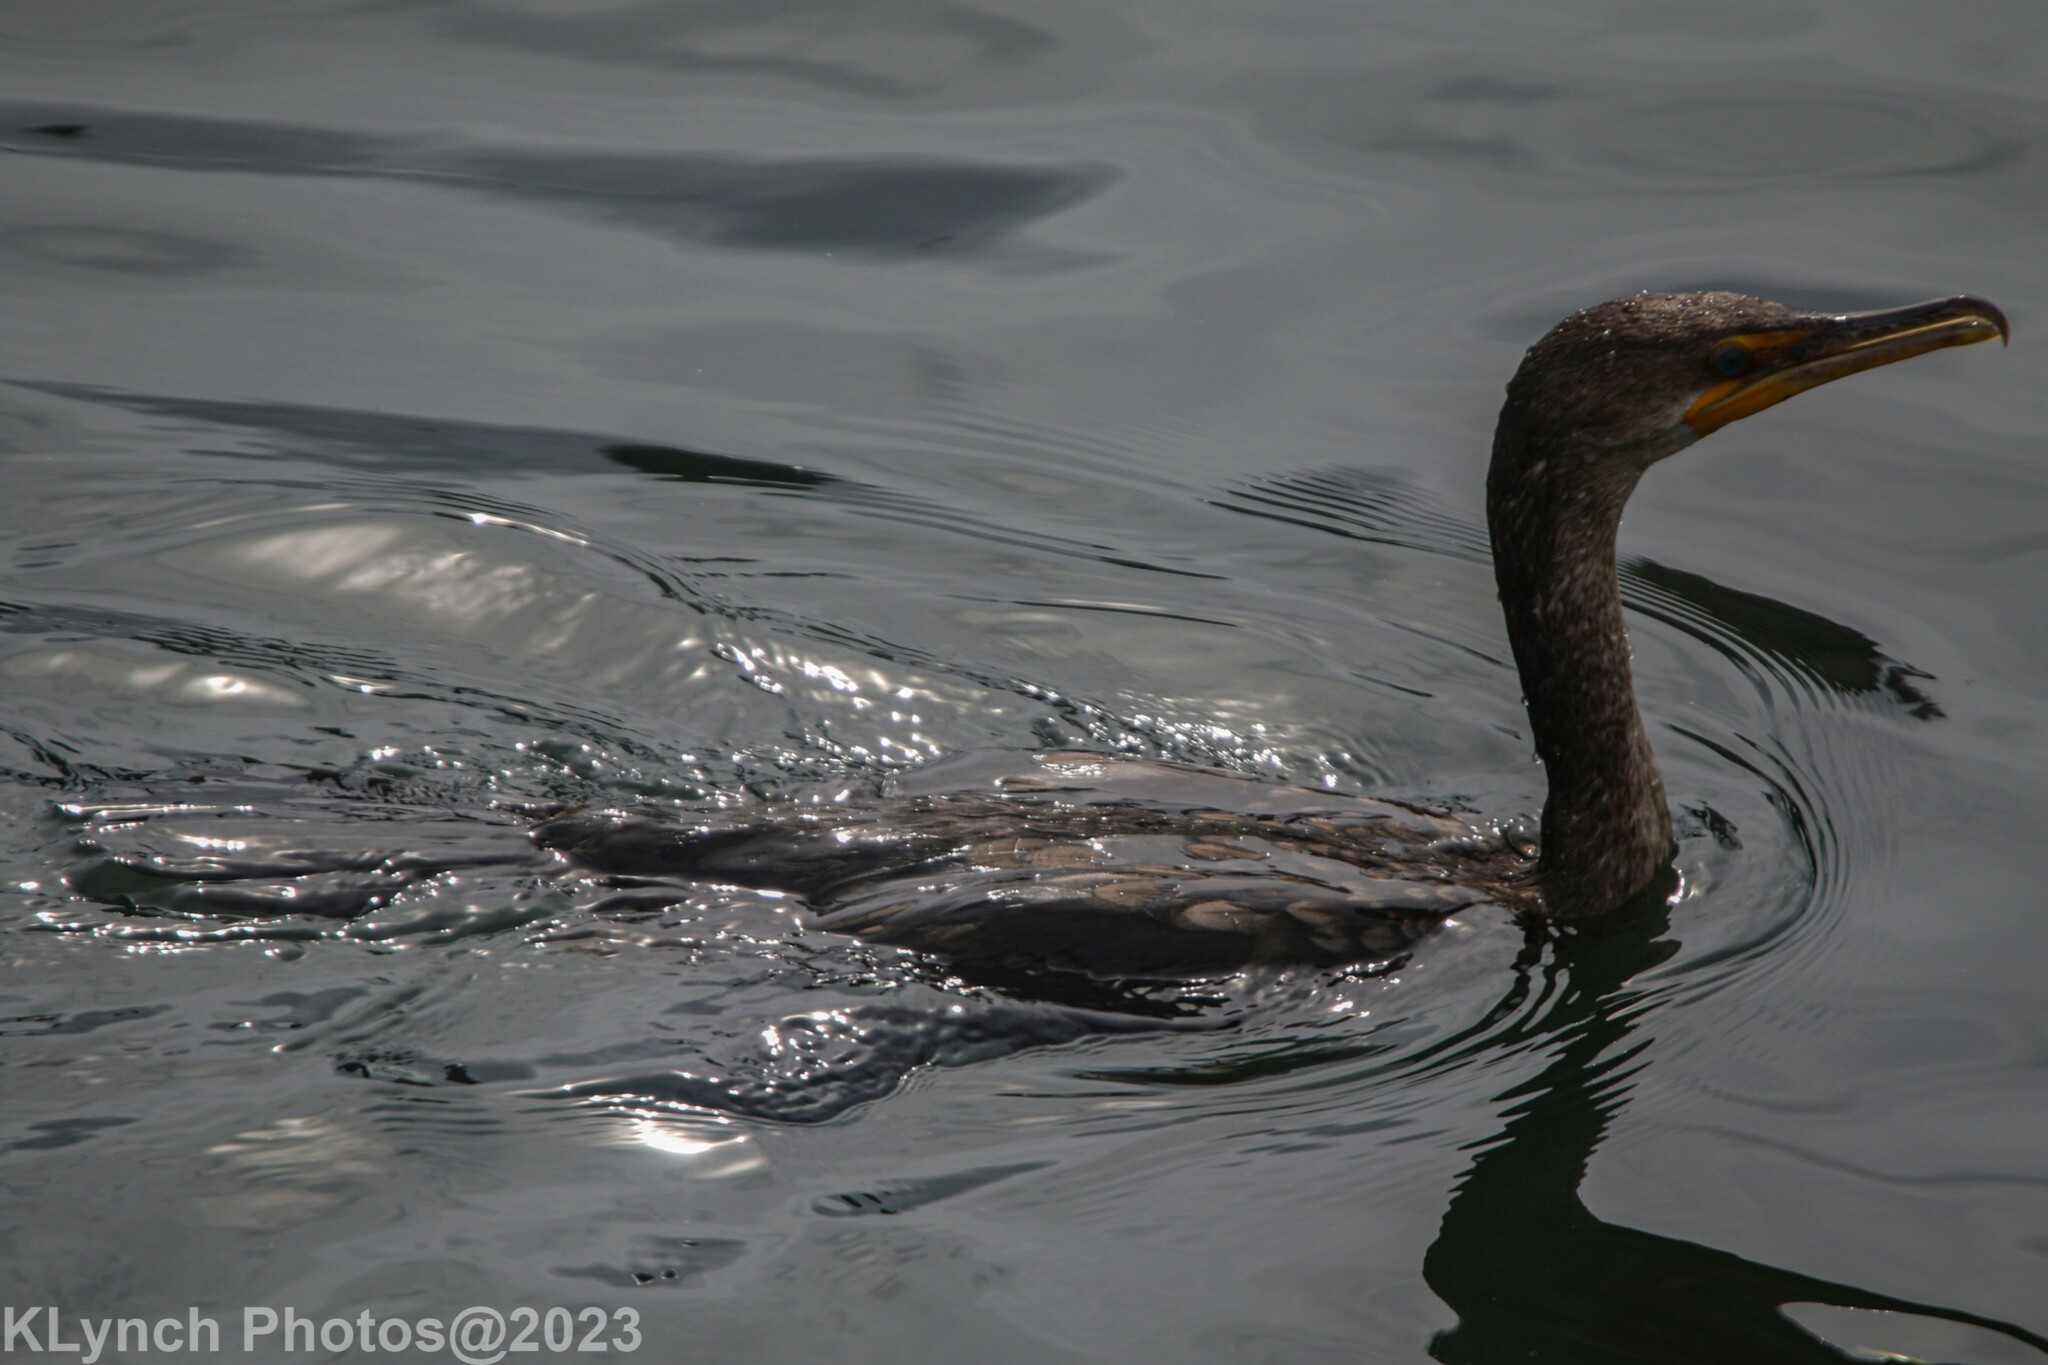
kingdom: Animalia
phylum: Chordata
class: Aves
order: Suliformes
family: Phalacrocoracidae
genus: Phalacrocorax
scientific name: Phalacrocorax auritus
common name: Double-crested cormorant
